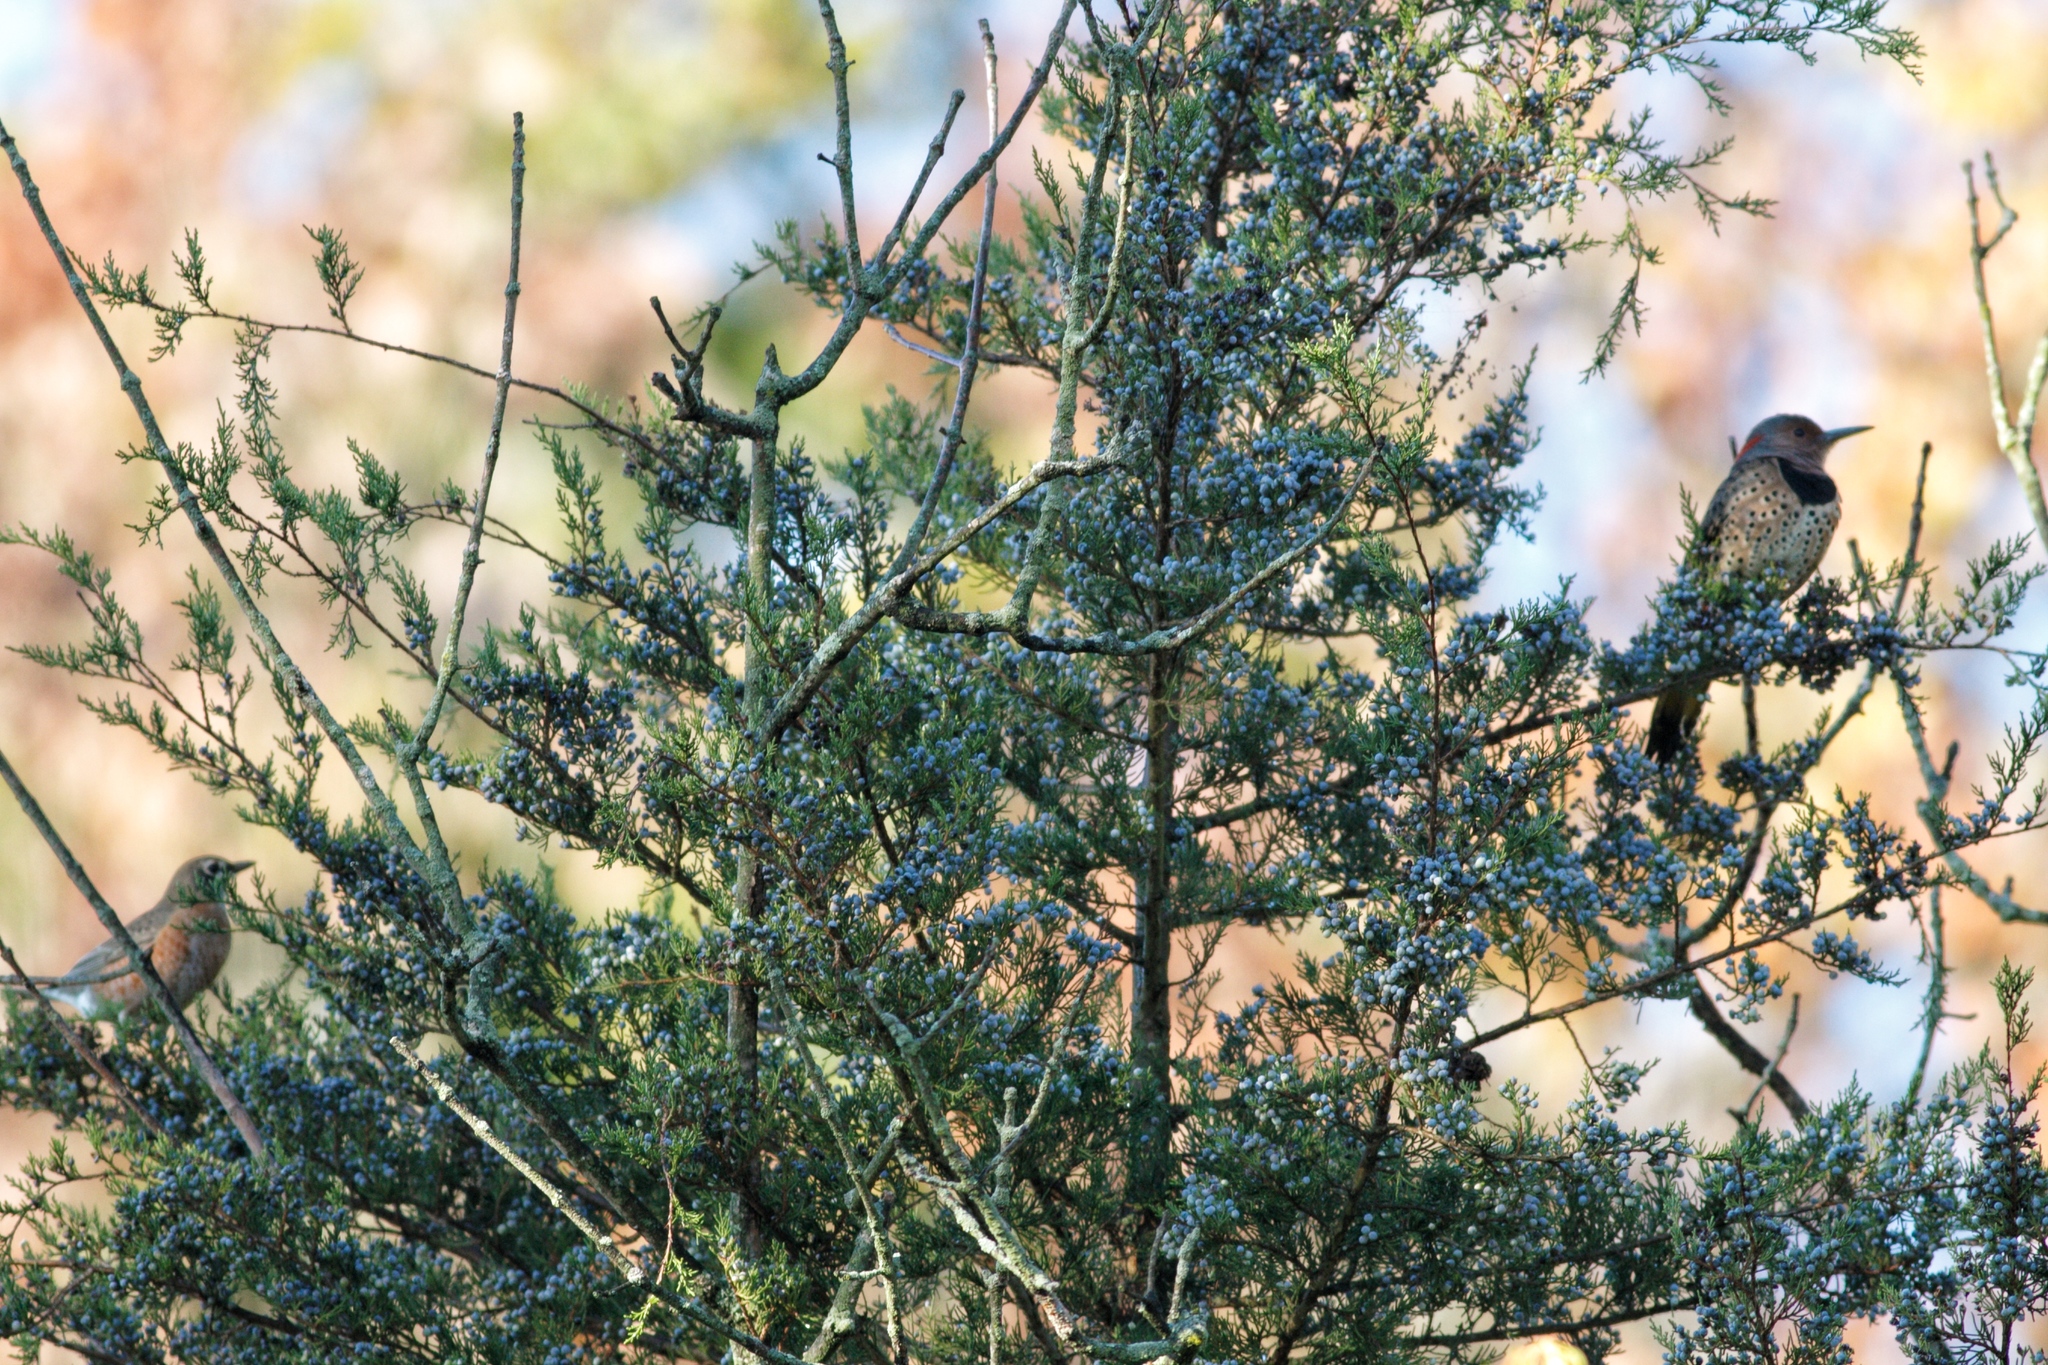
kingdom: Animalia
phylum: Chordata
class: Aves
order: Passeriformes
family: Turdidae
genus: Turdus
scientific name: Turdus migratorius
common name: American robin
